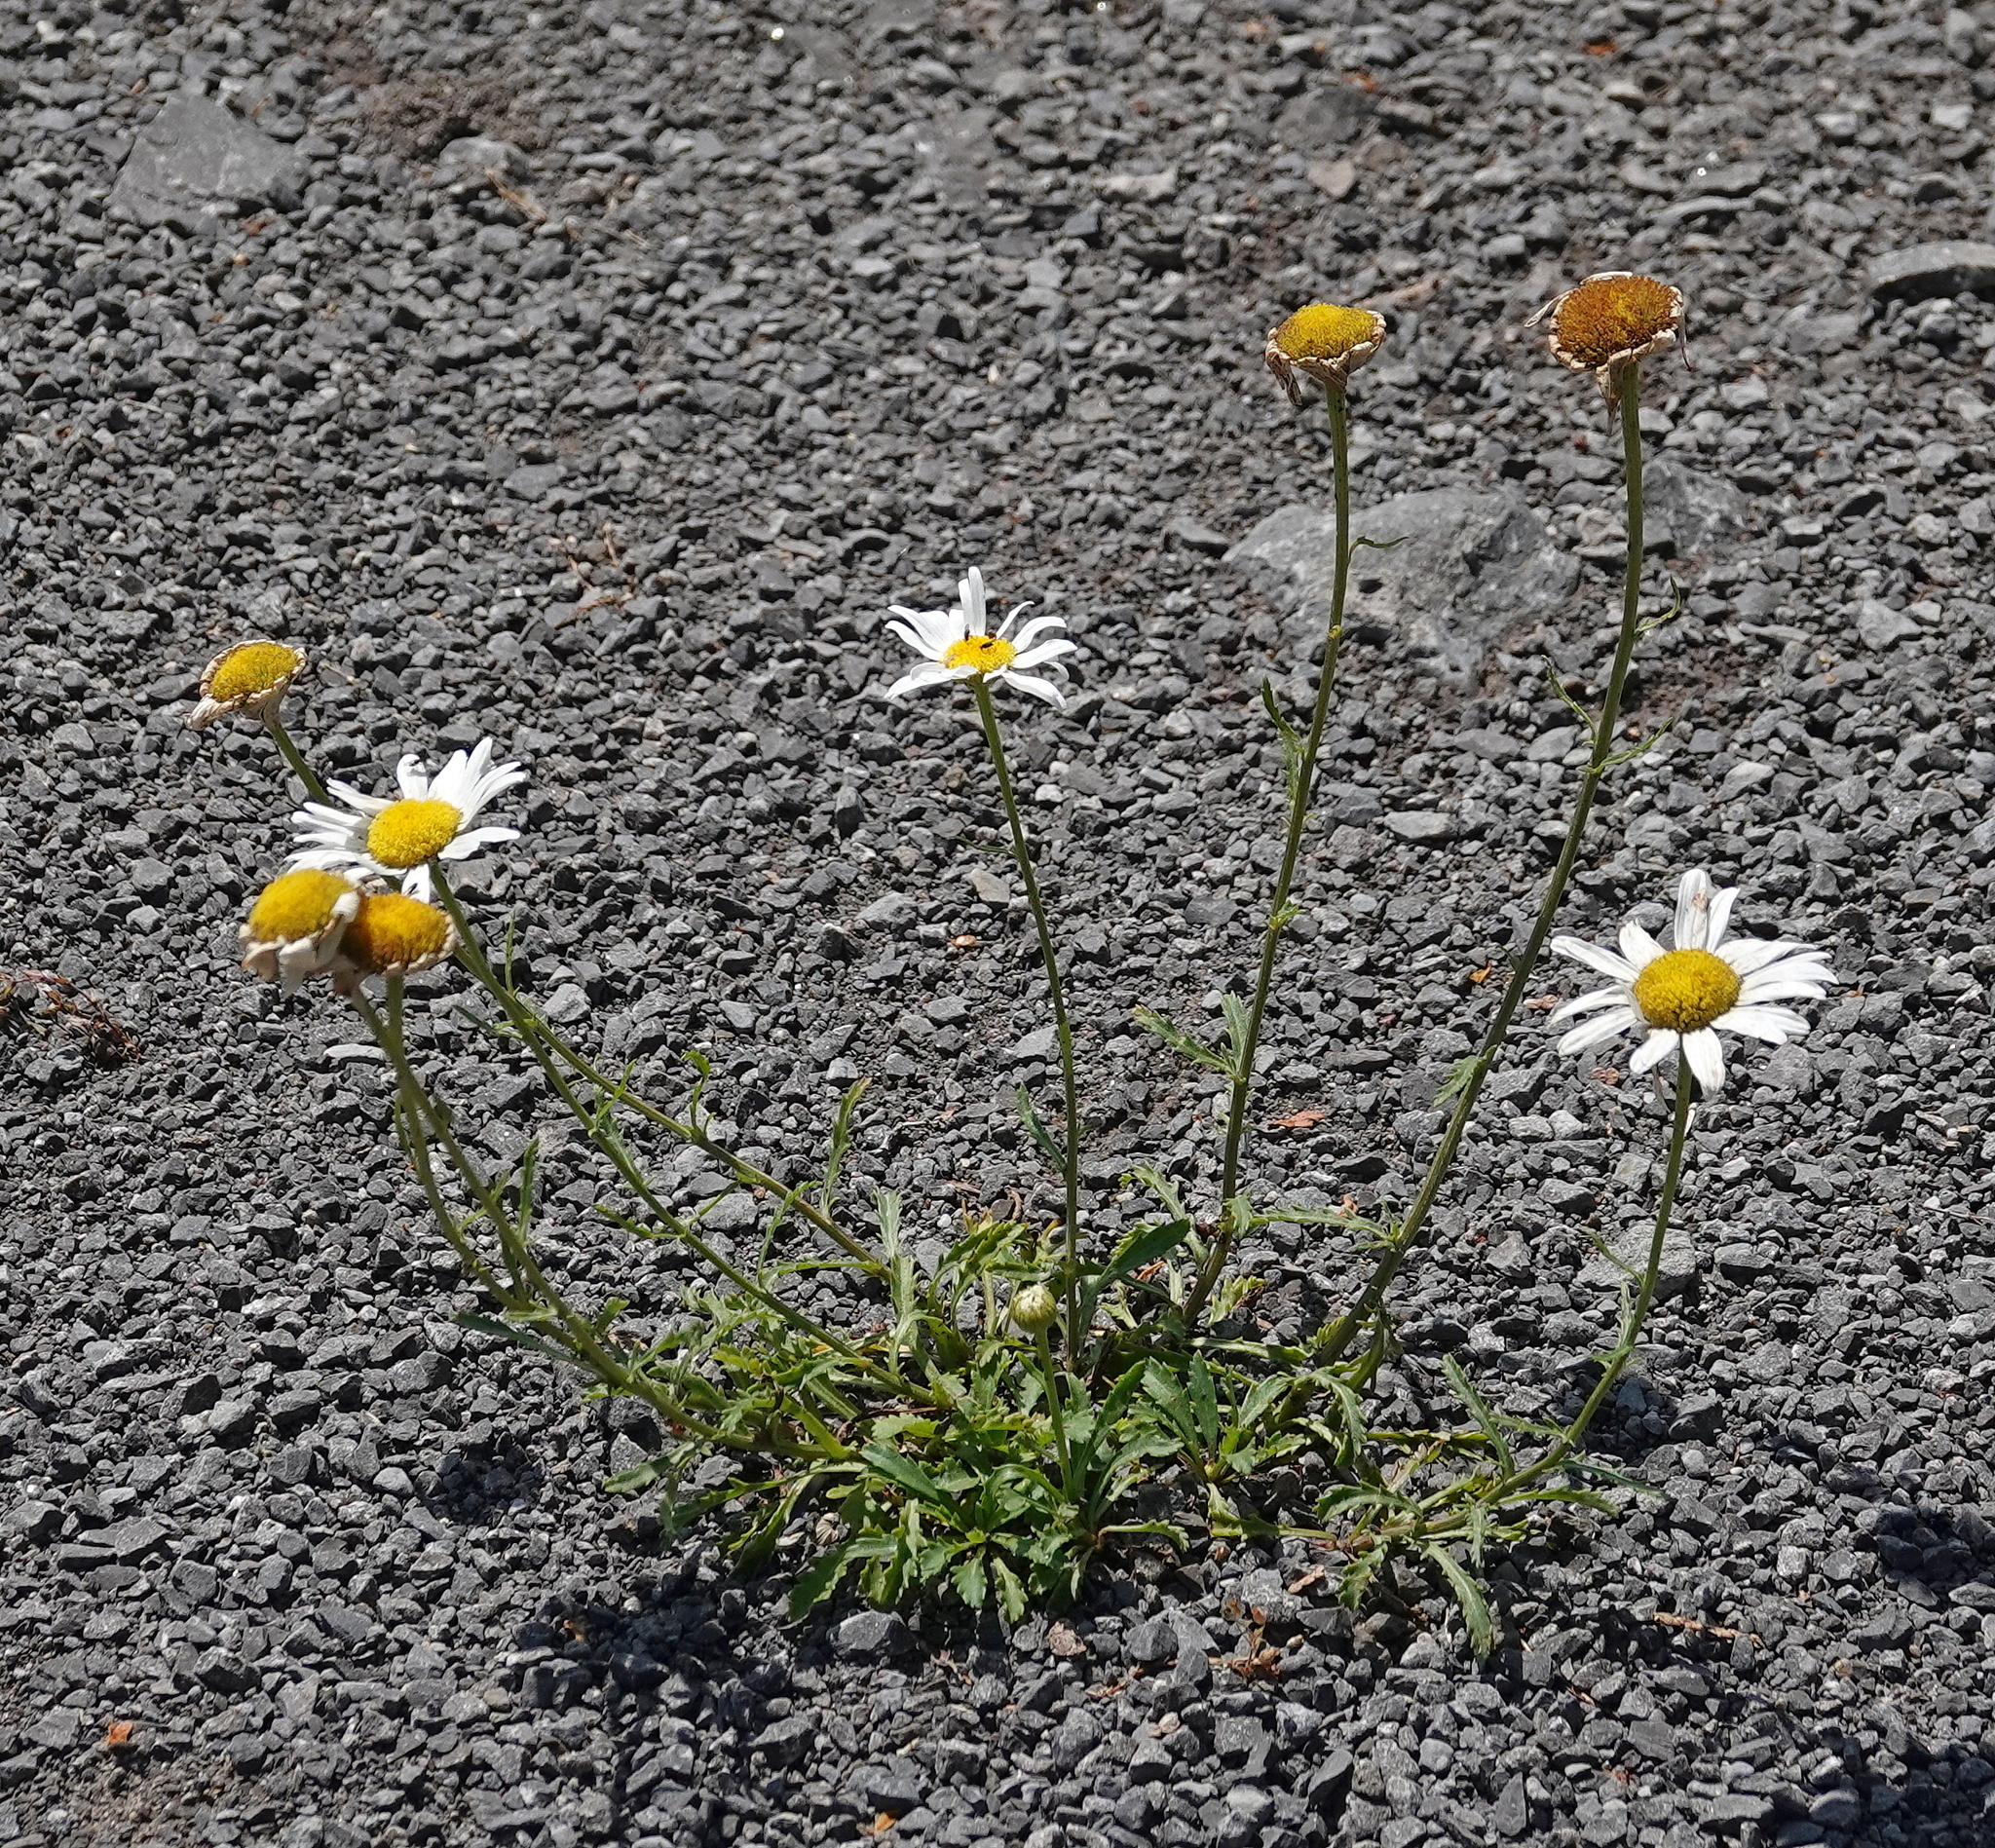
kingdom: Plantae
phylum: Tracheophyta
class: Magnoliopsida
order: Asterales
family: Asteraceae
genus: Leucanthemum
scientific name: Leucanthemum vulgare
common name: Oxeye daisy
